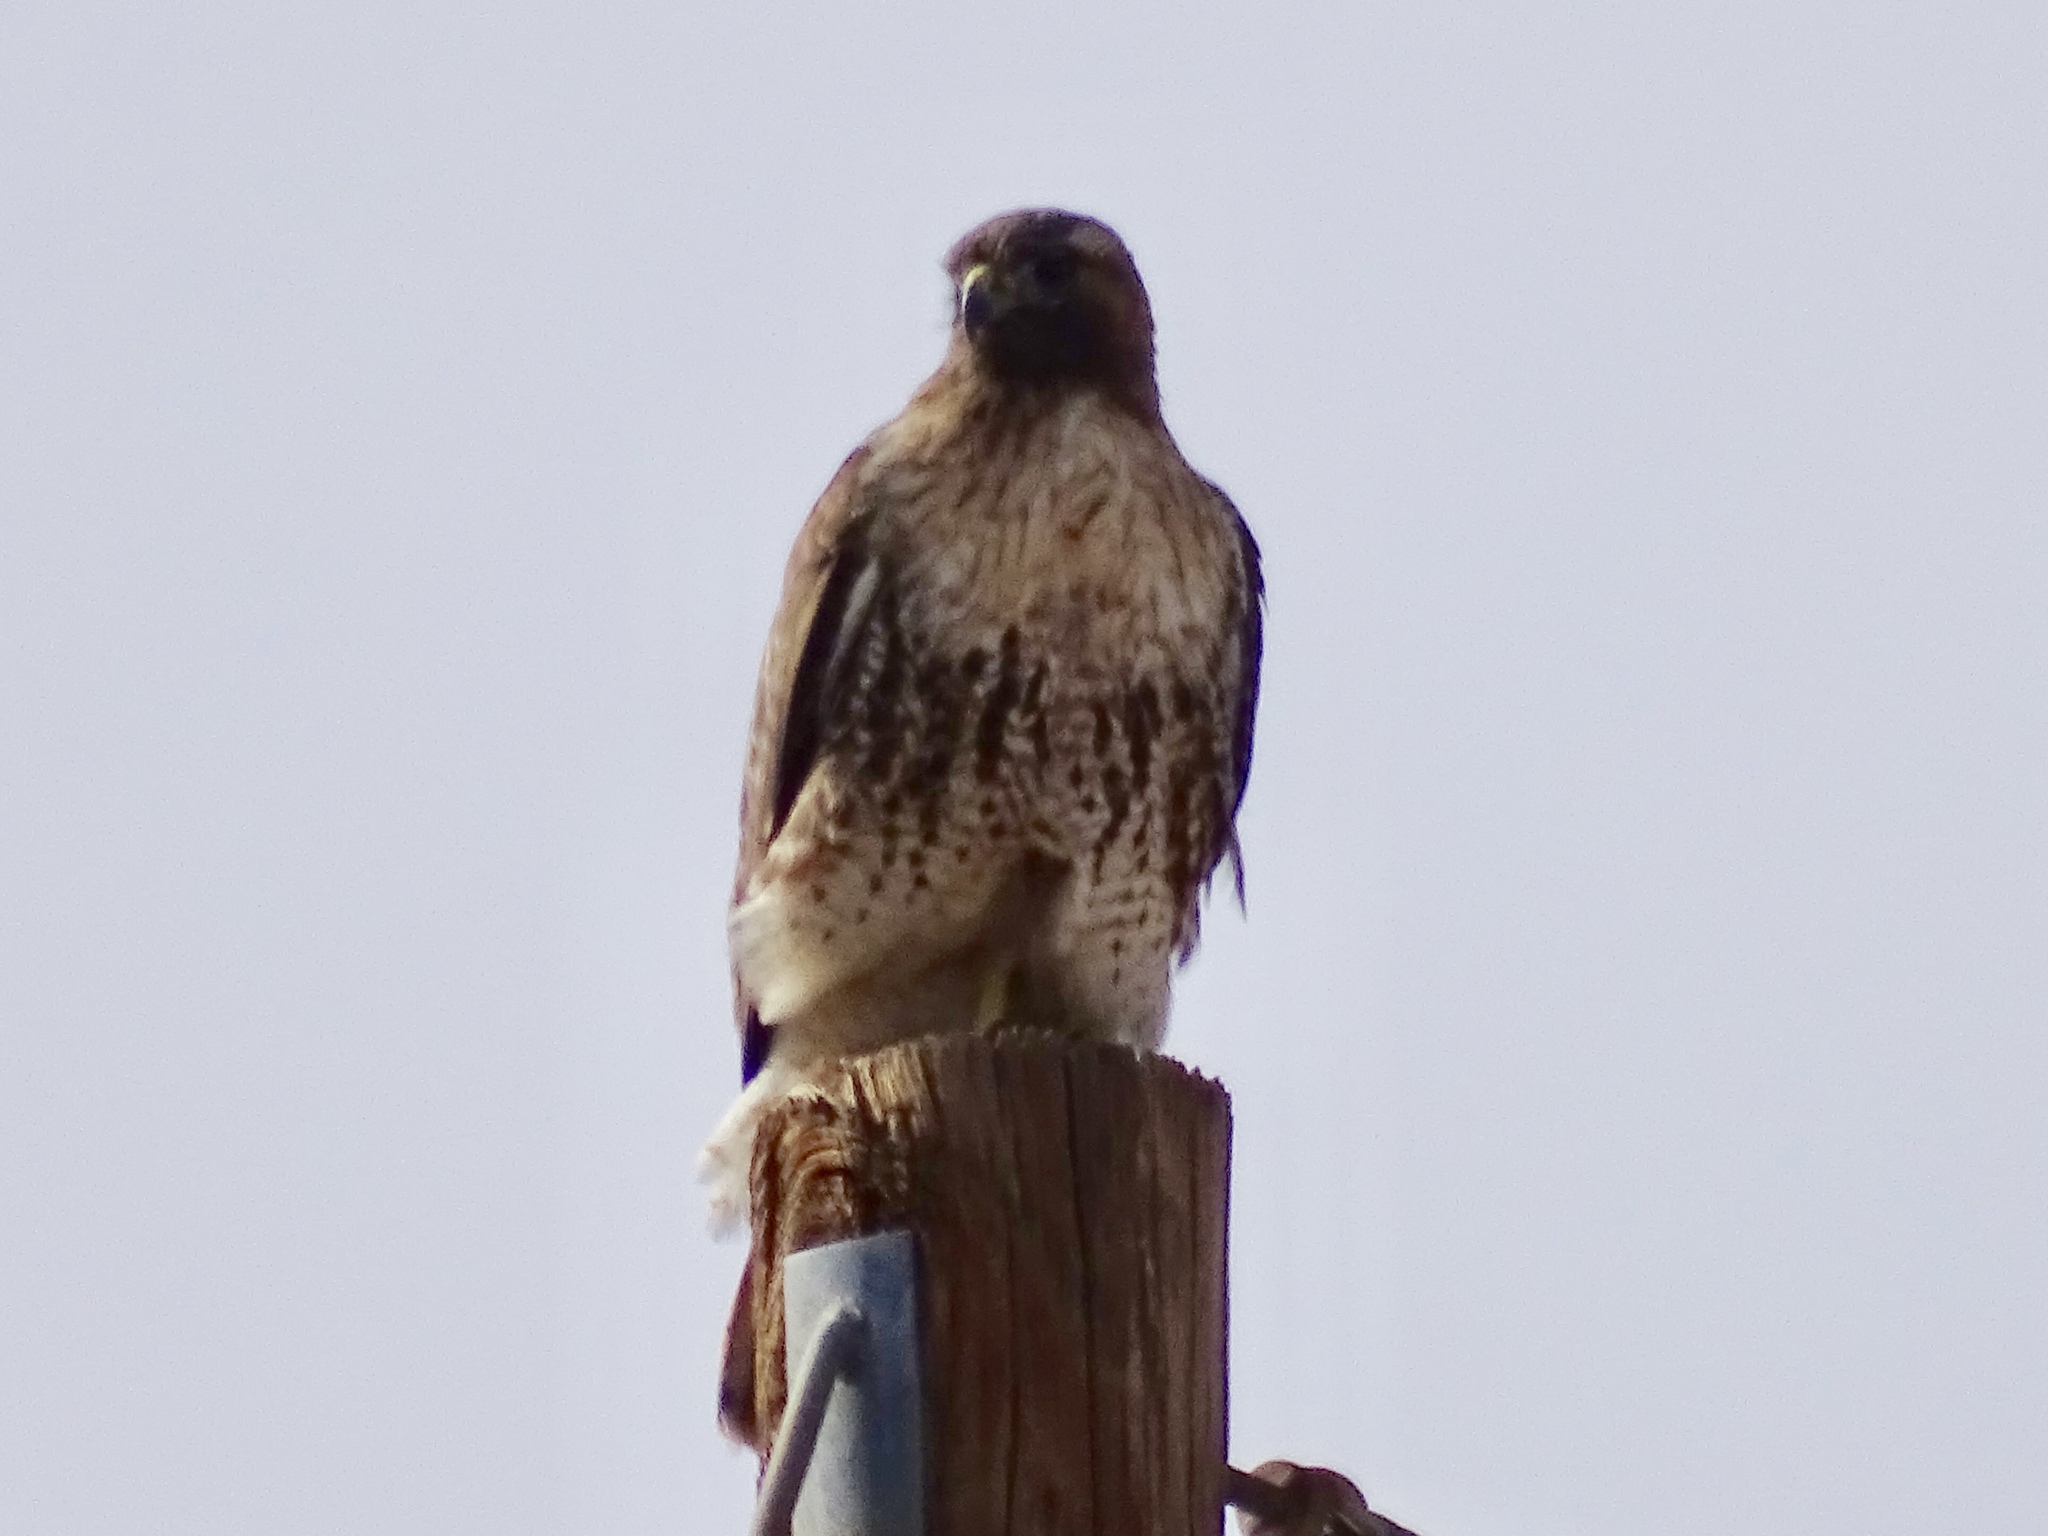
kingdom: Animalia
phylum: Chordata
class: Aves
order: Accipitriformes
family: Accipitridae
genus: Buteo
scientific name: Buteo jamaicensis
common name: Red-tailed hawk
